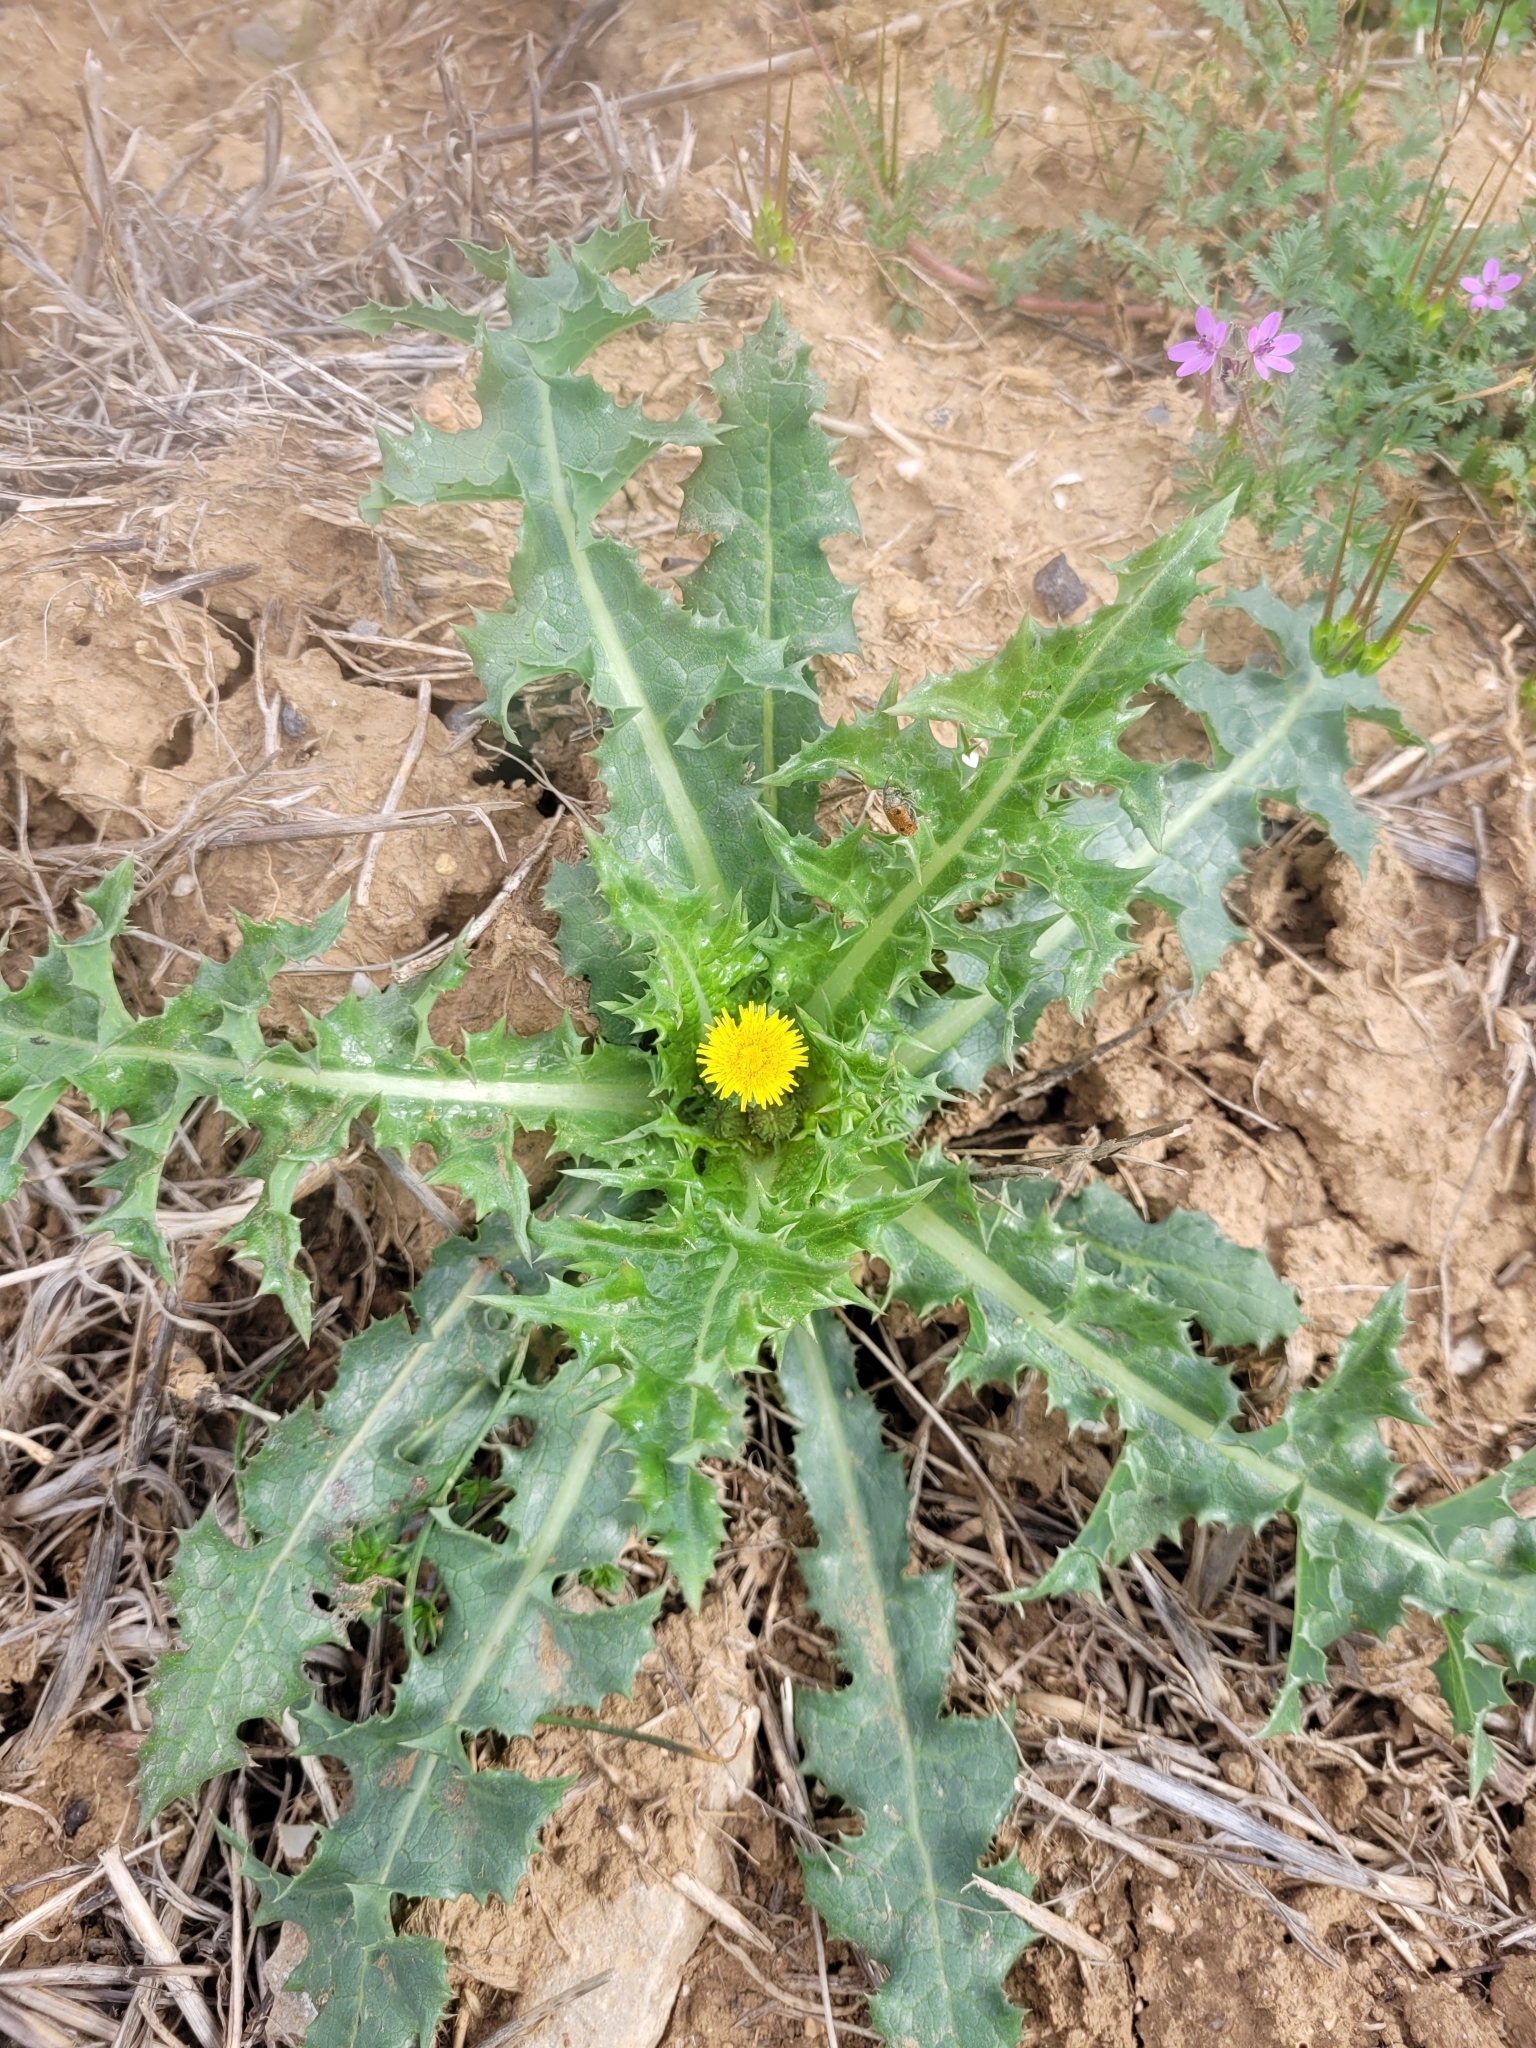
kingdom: Plantae
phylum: Tracheophyta
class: Magnoliopsida
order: Asterales
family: Asteraceae
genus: Sonchus
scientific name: Sonchus asper
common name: Prickly sow-thistle
